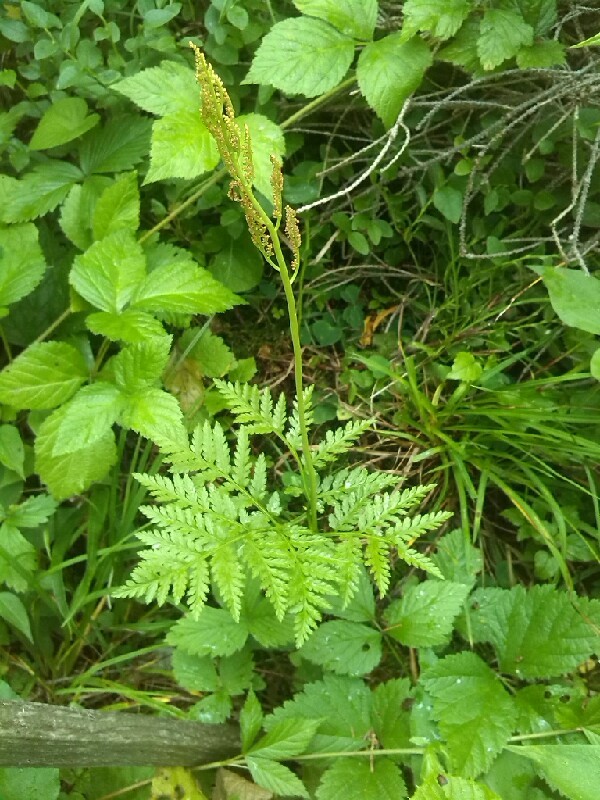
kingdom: Plantae
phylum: Tracheophyta
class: Polypodiopsida
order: Ophioglossales
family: Ophioglossaceae
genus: Botrypus
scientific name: Botrypus virginianus
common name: Common grapefern
